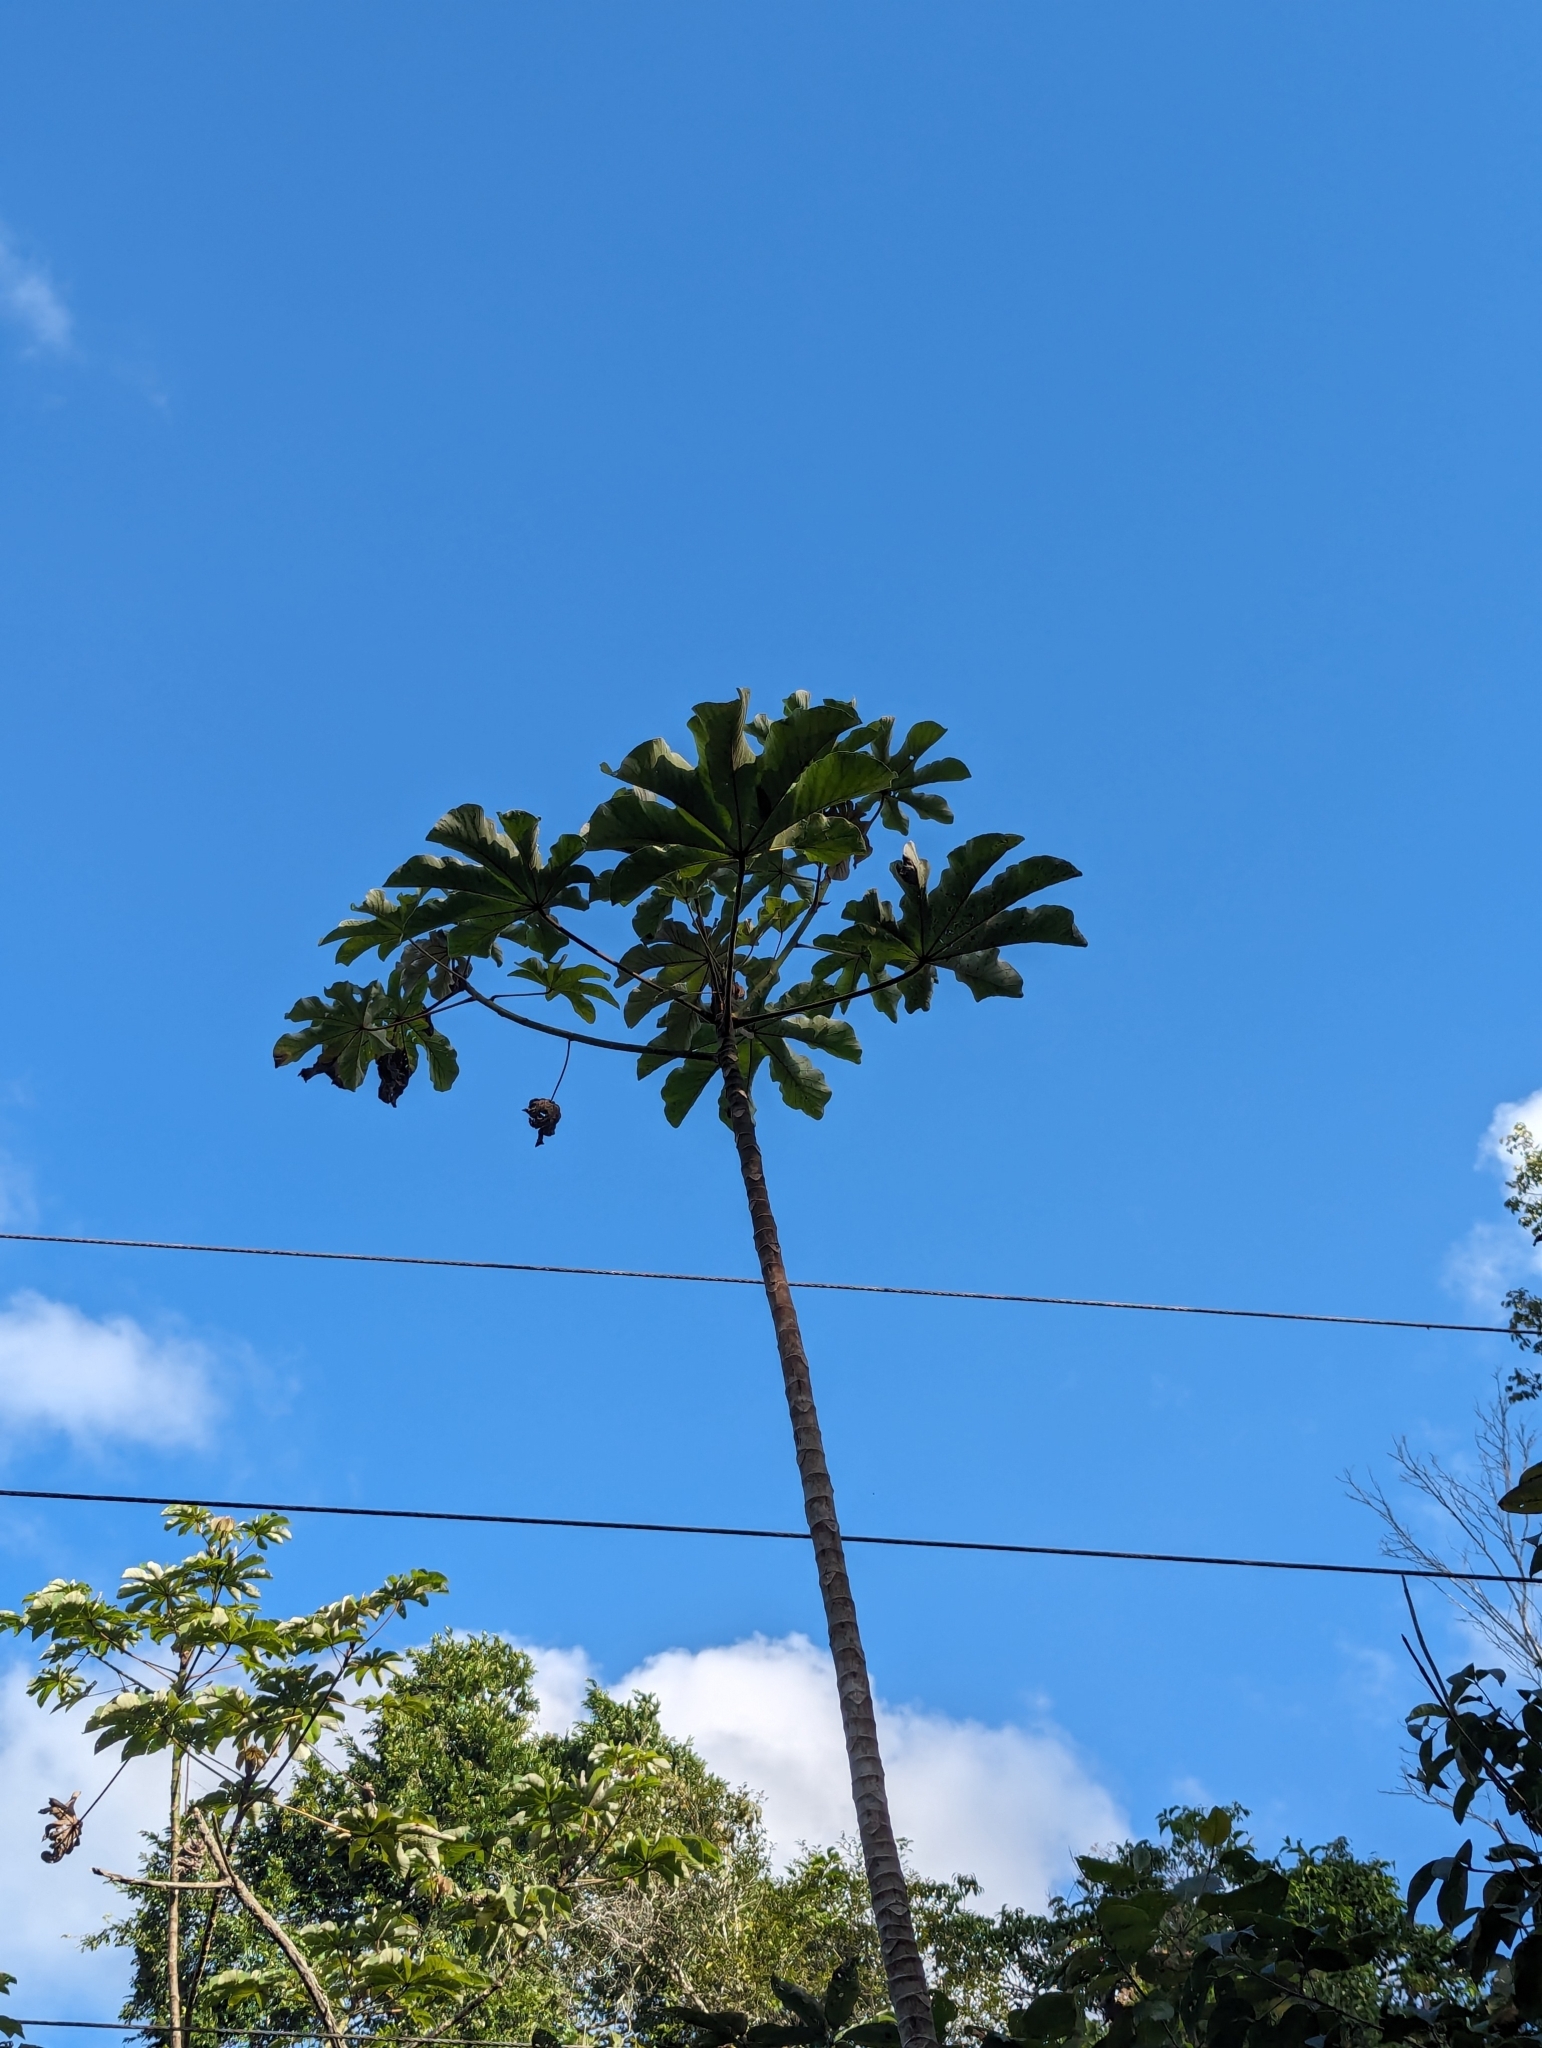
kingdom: Plantae
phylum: Tracheophyta
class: Magnoliopsida
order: Brassicales
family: Caricaceae
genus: Carica
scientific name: Carica papaya
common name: Papaya
